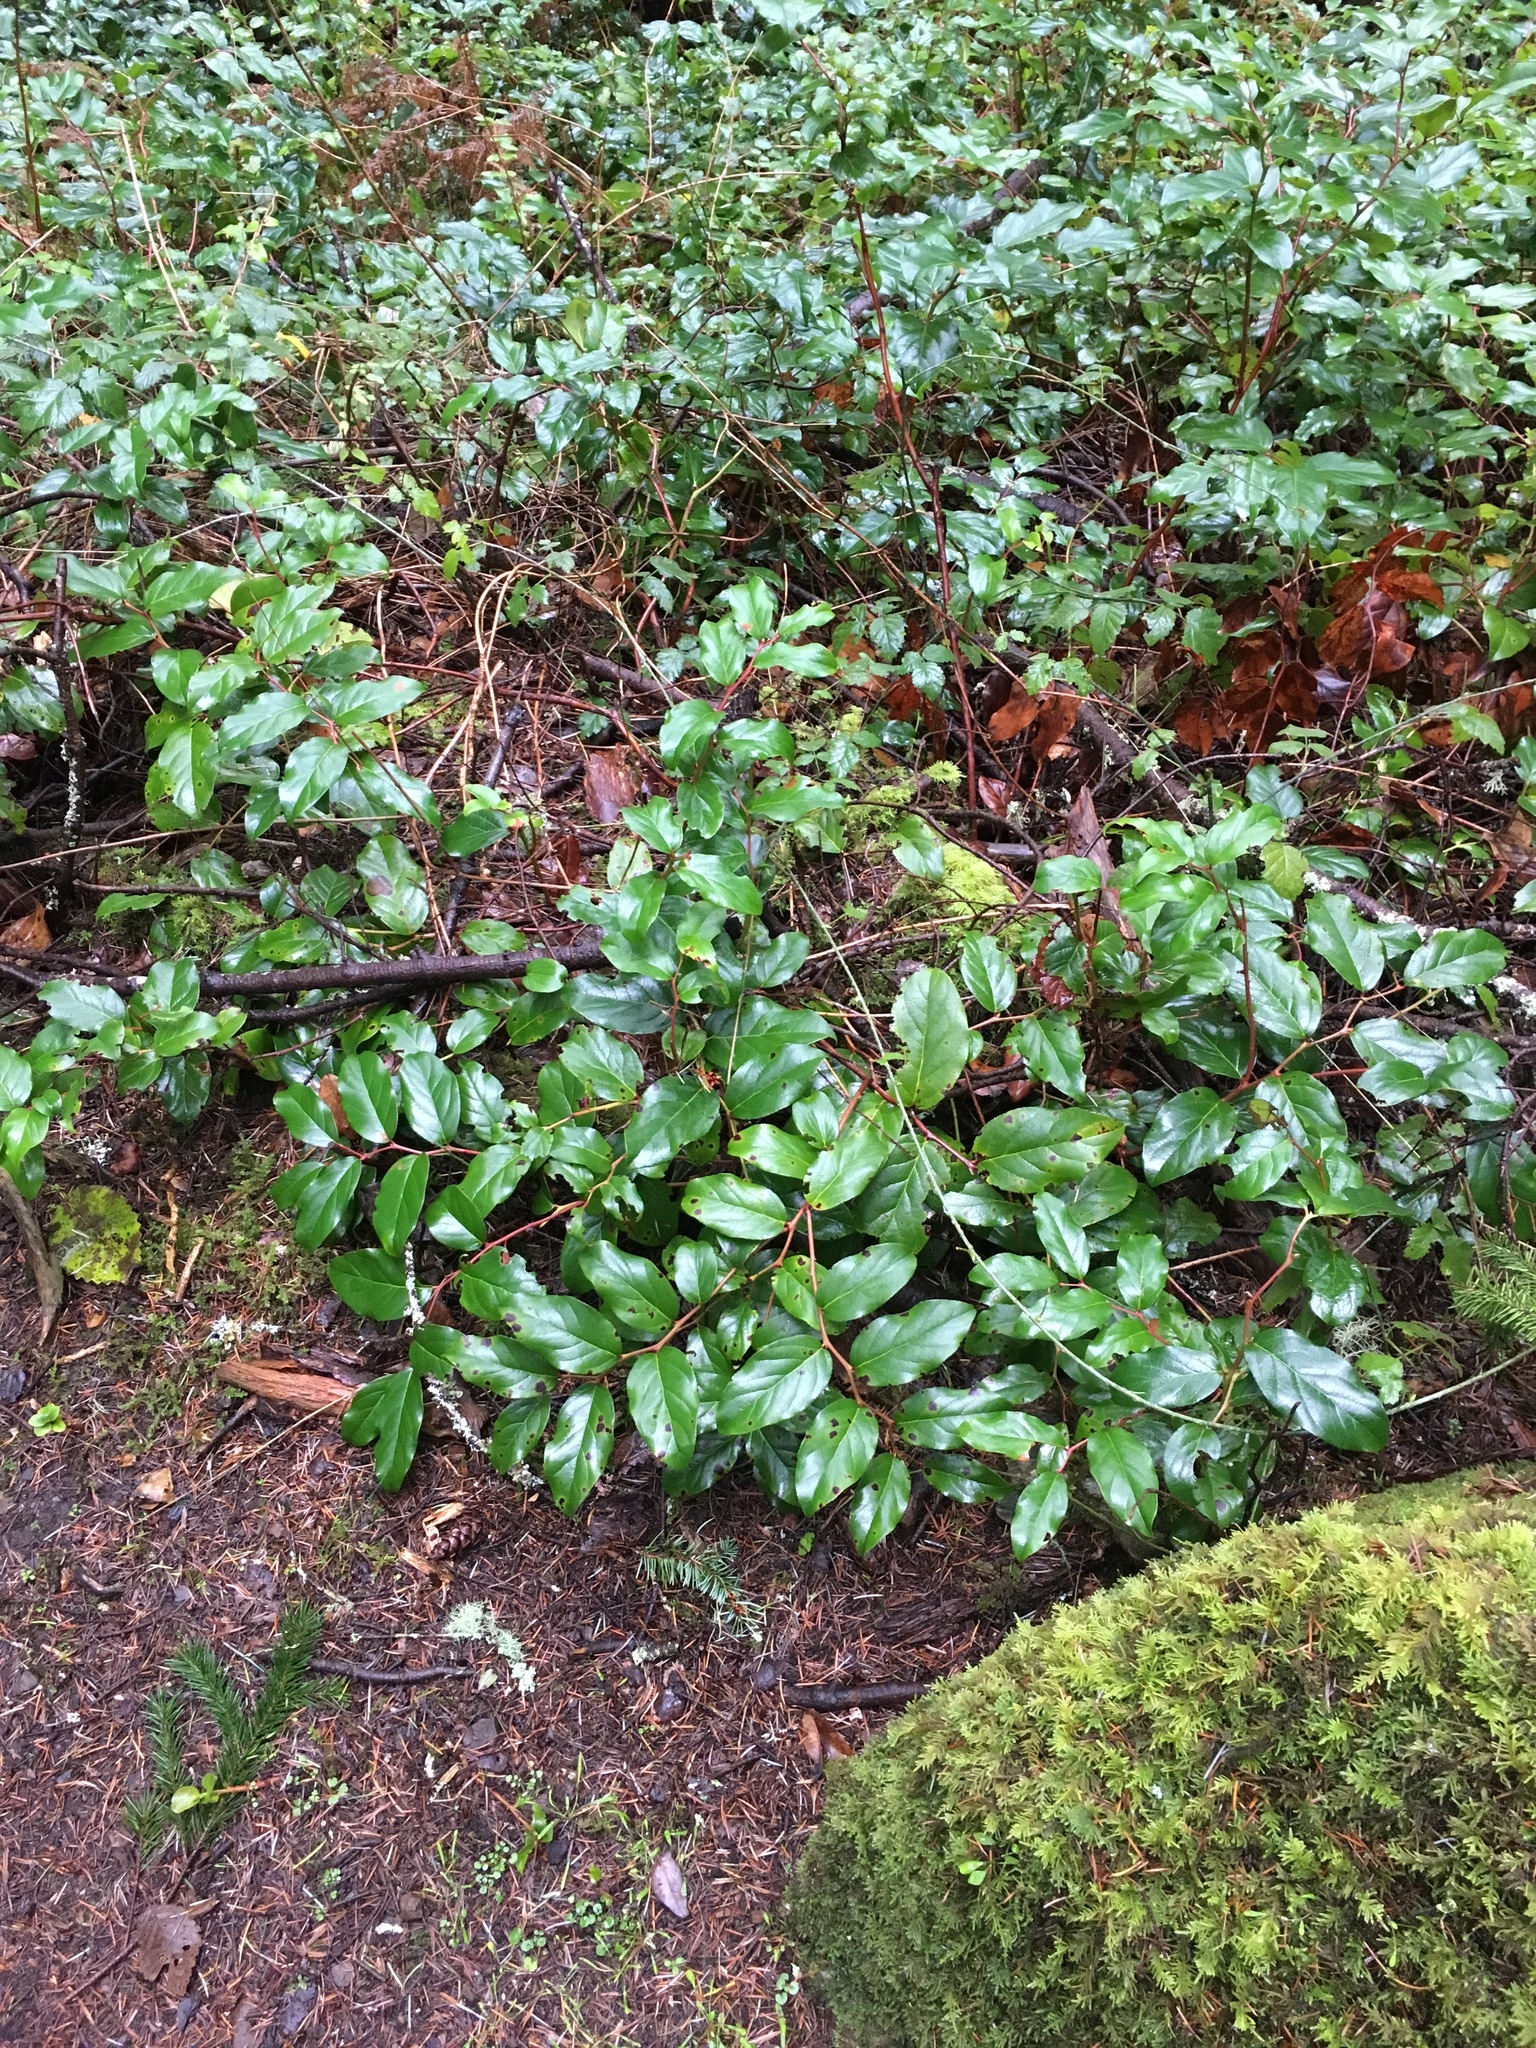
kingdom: Plantae
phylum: Tracheophyta
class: Magnoliopsida
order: Ericales
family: Ericaceae
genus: Gaultheria
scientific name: Gaultheria shallon
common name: Shallon
